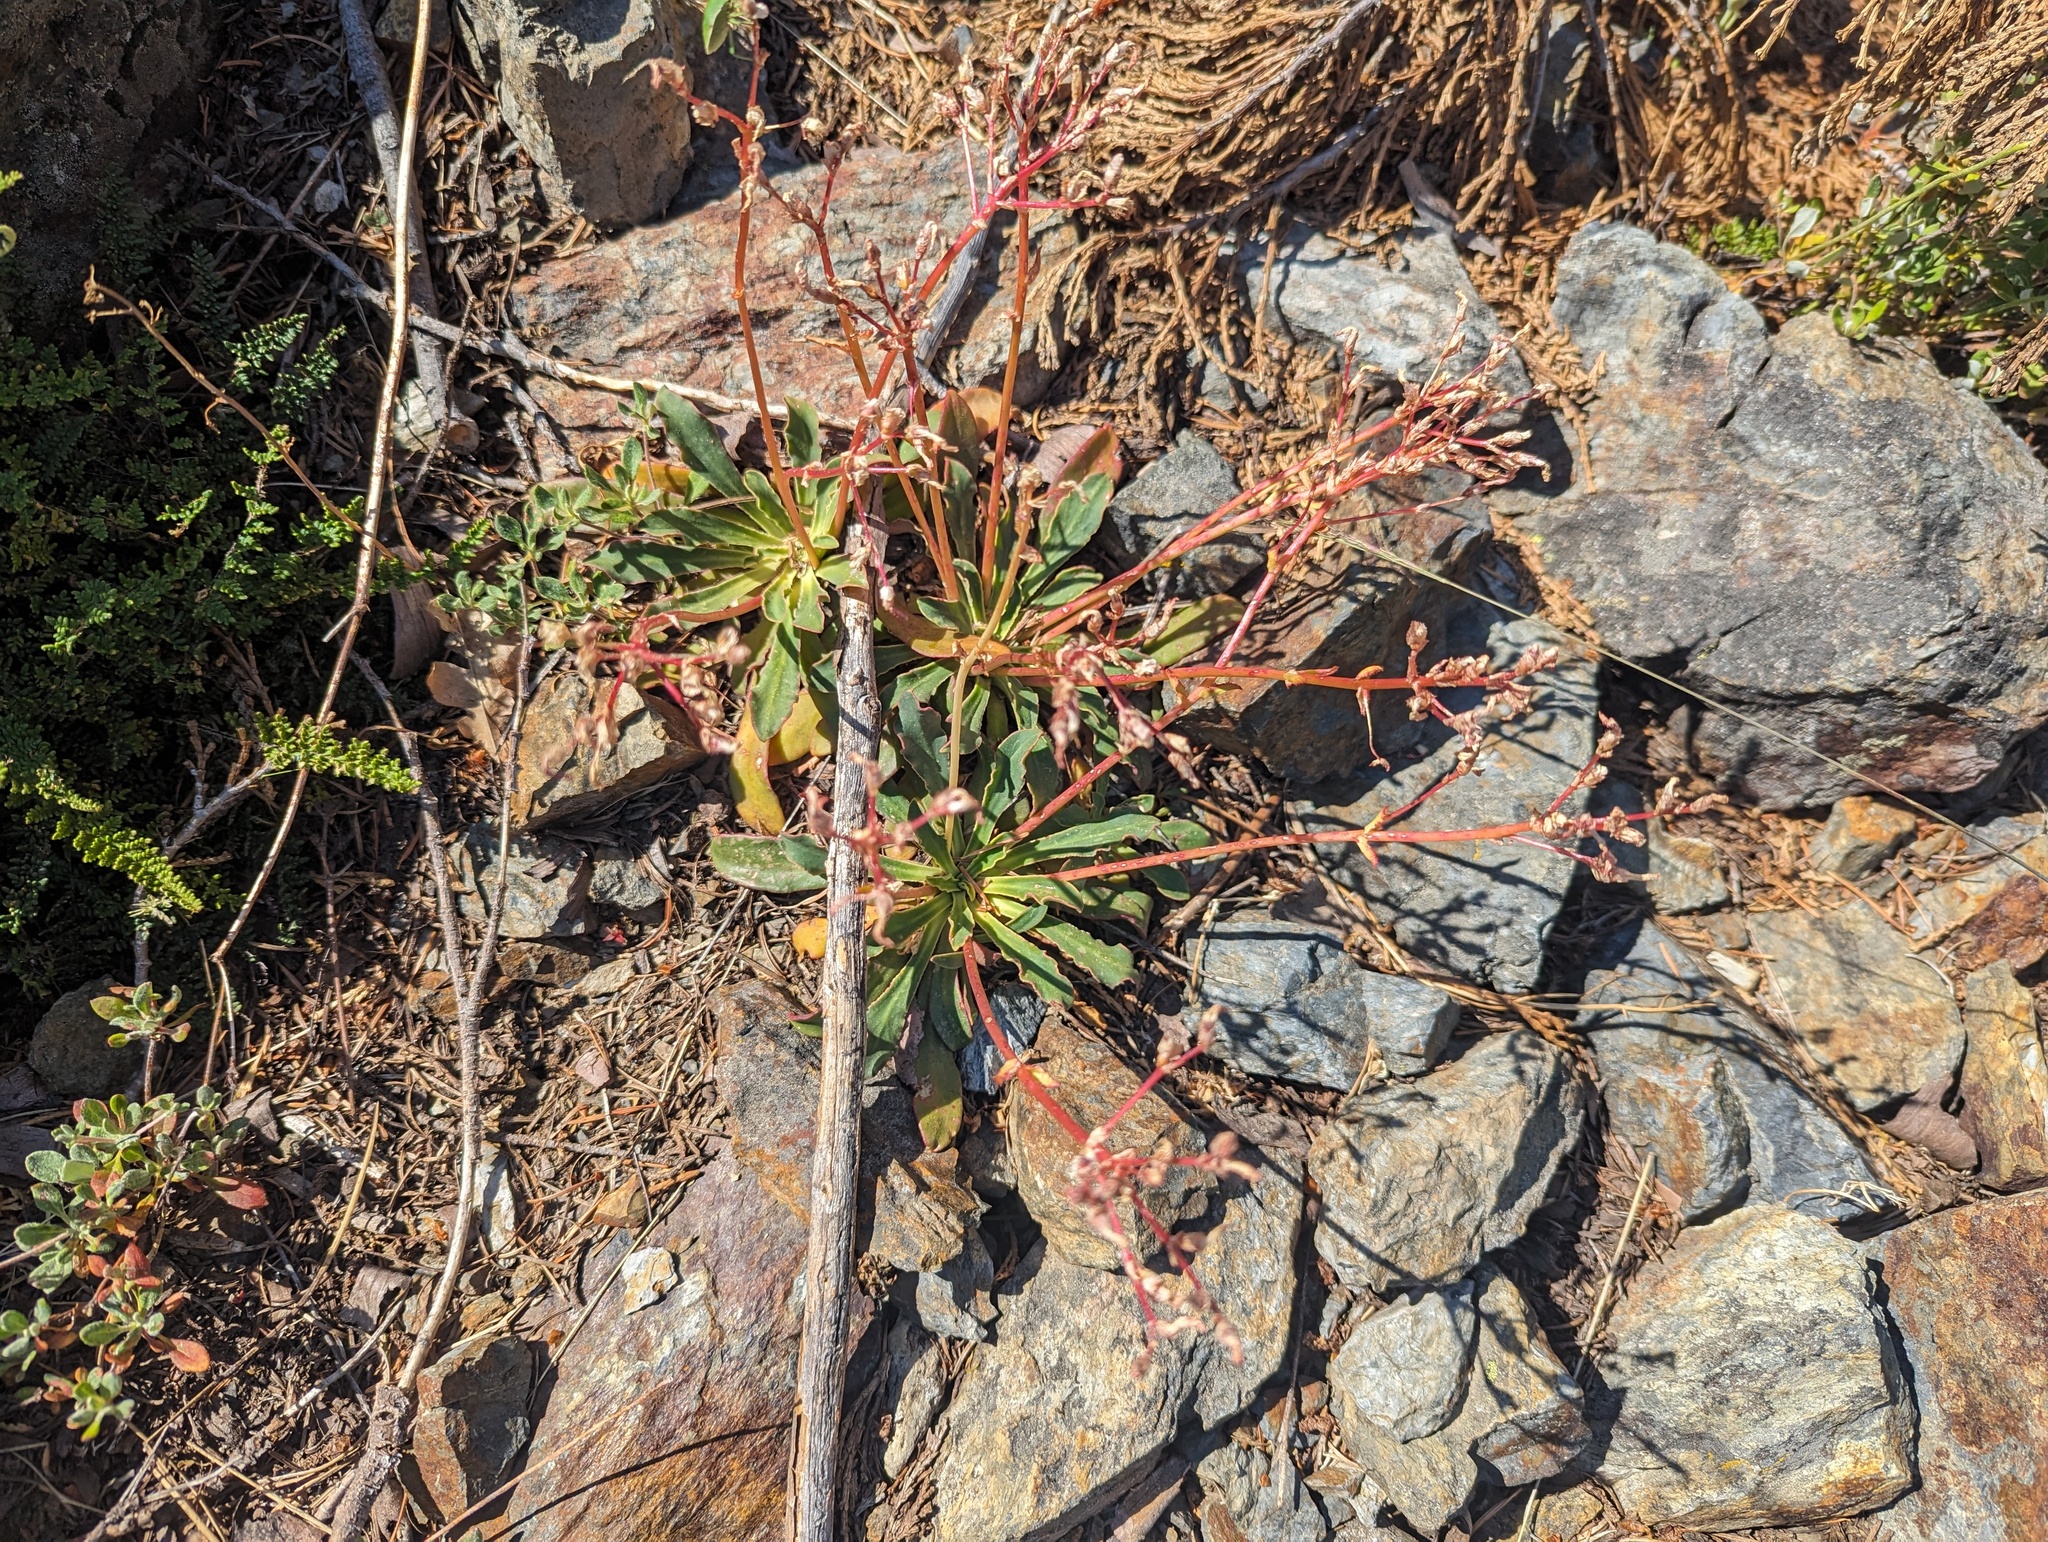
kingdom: Plantae
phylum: Tracheophyta
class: Magnoliopsida
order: Caryophyllales
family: Montiaceae
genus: Lewisia
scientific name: Lewisia cotyledon
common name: Siskiyou lewisia
